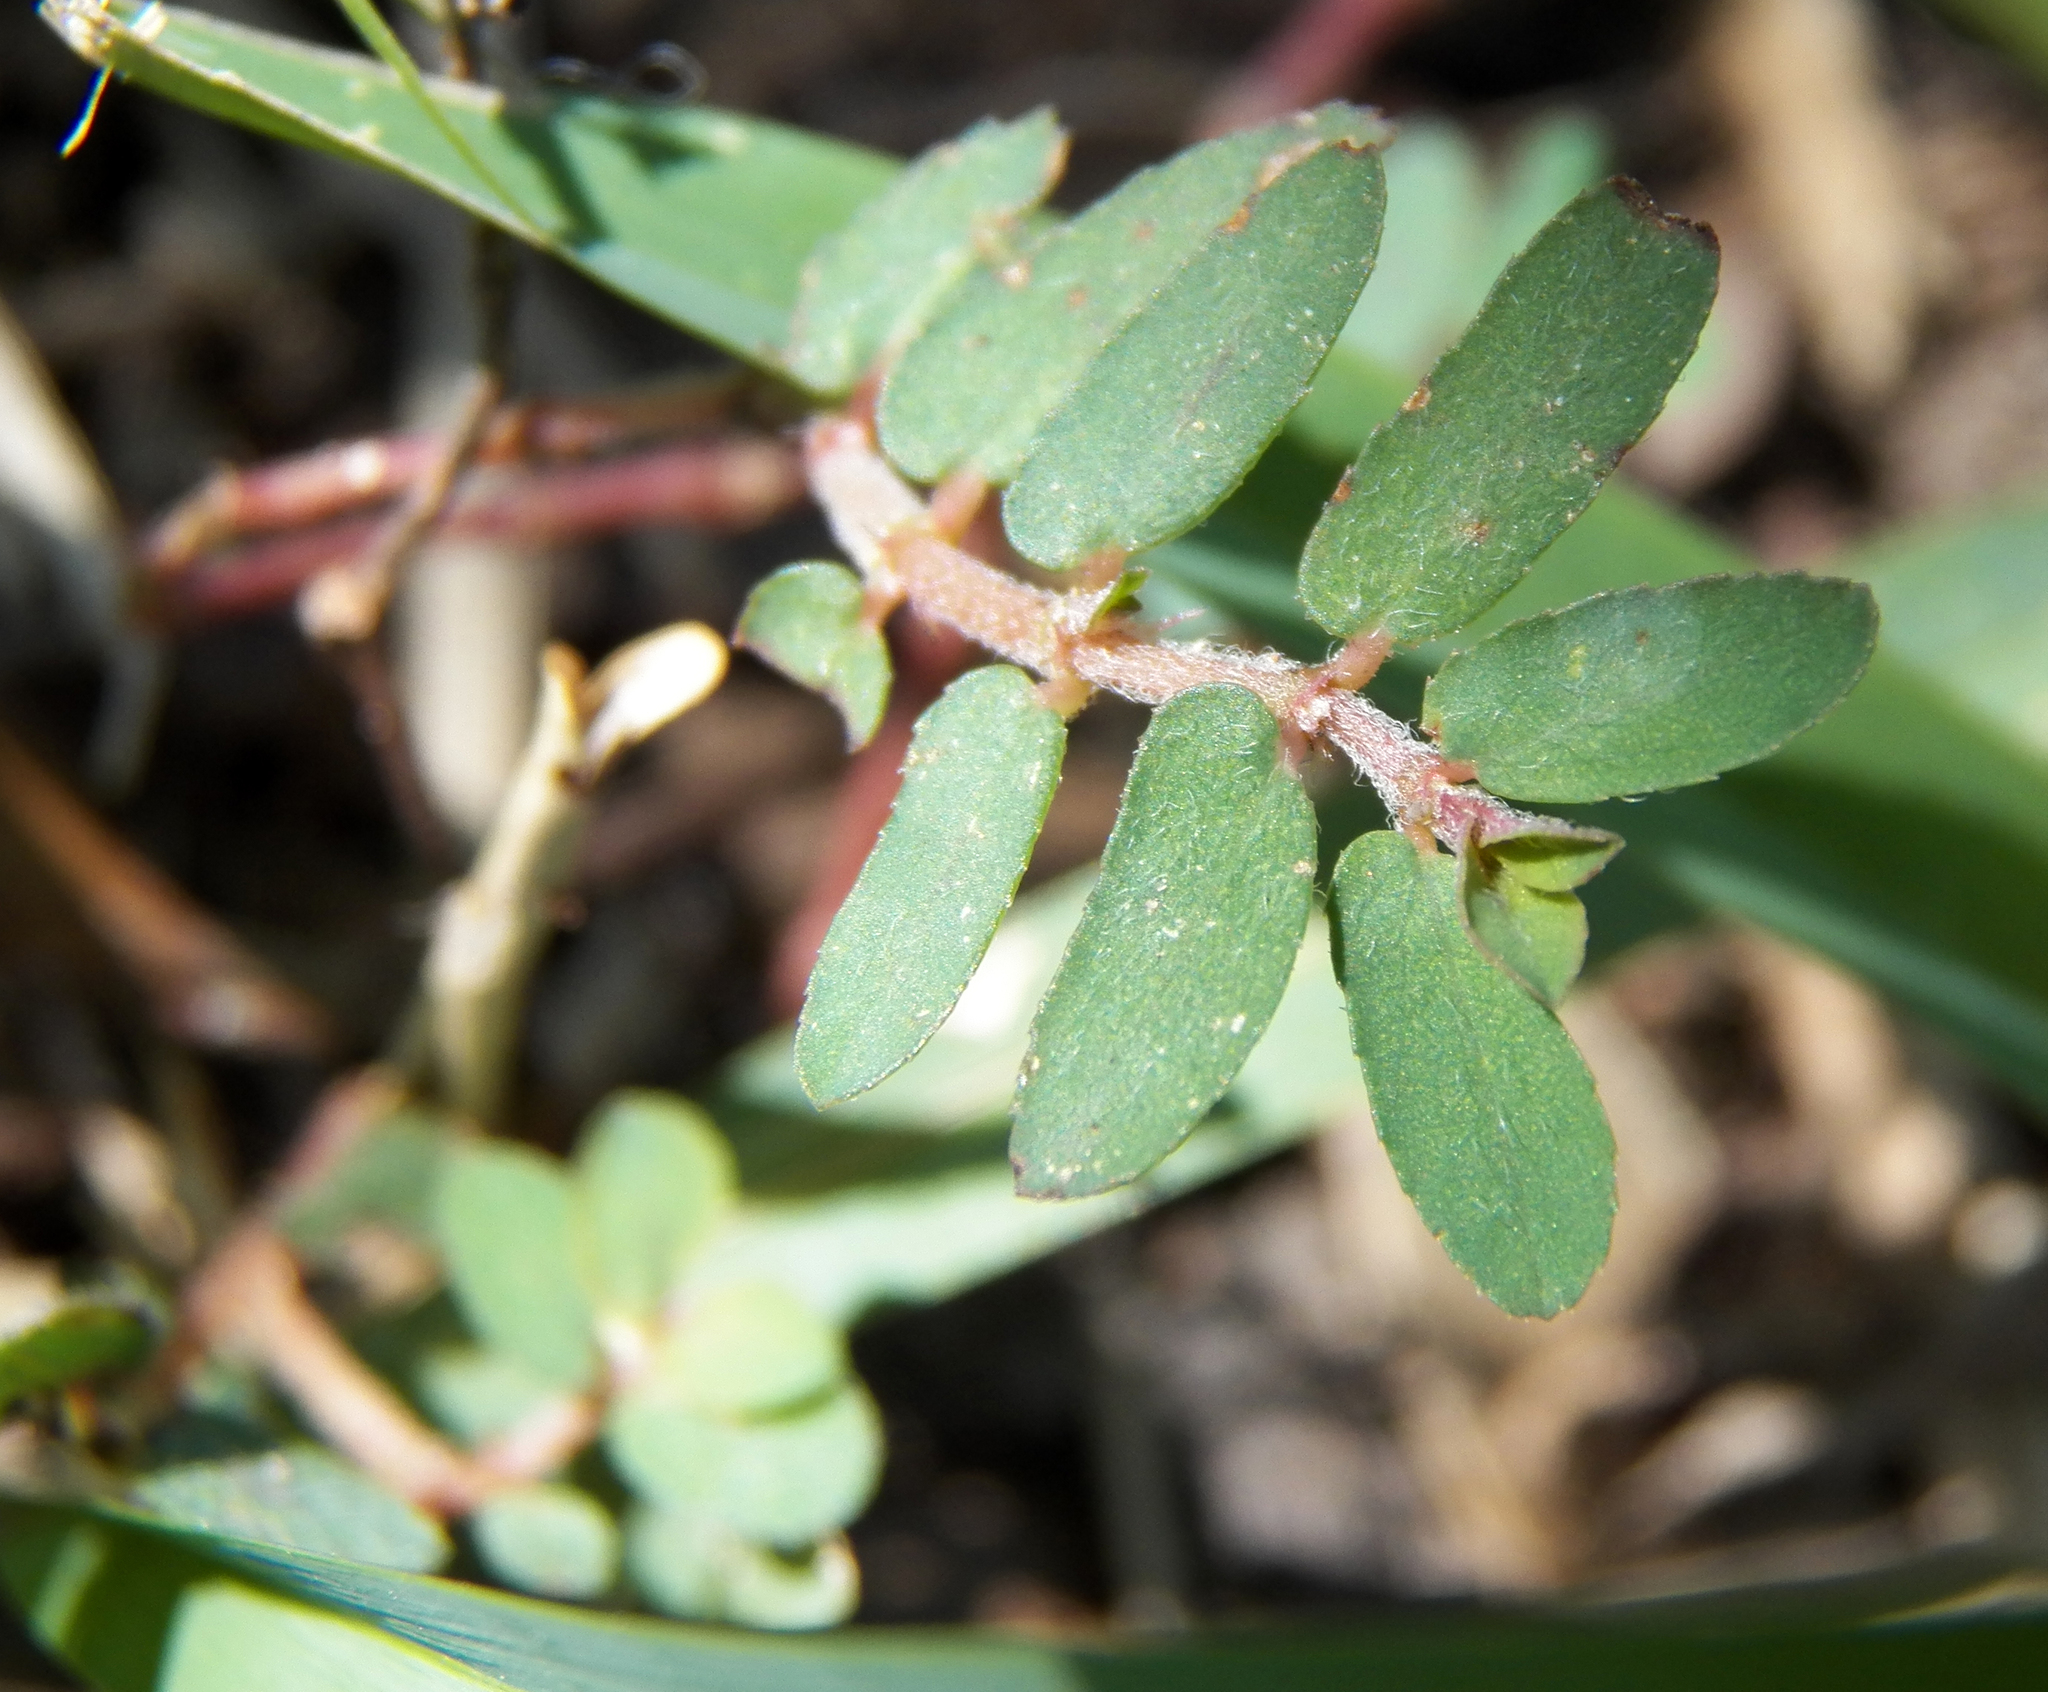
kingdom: Plantae
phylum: Tracheophyta
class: Magnoliopsida
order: Malpighiales
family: Euphorbiaceae
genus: Euphorbia
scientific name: Euphorbia maculata
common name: Spotted spurge
